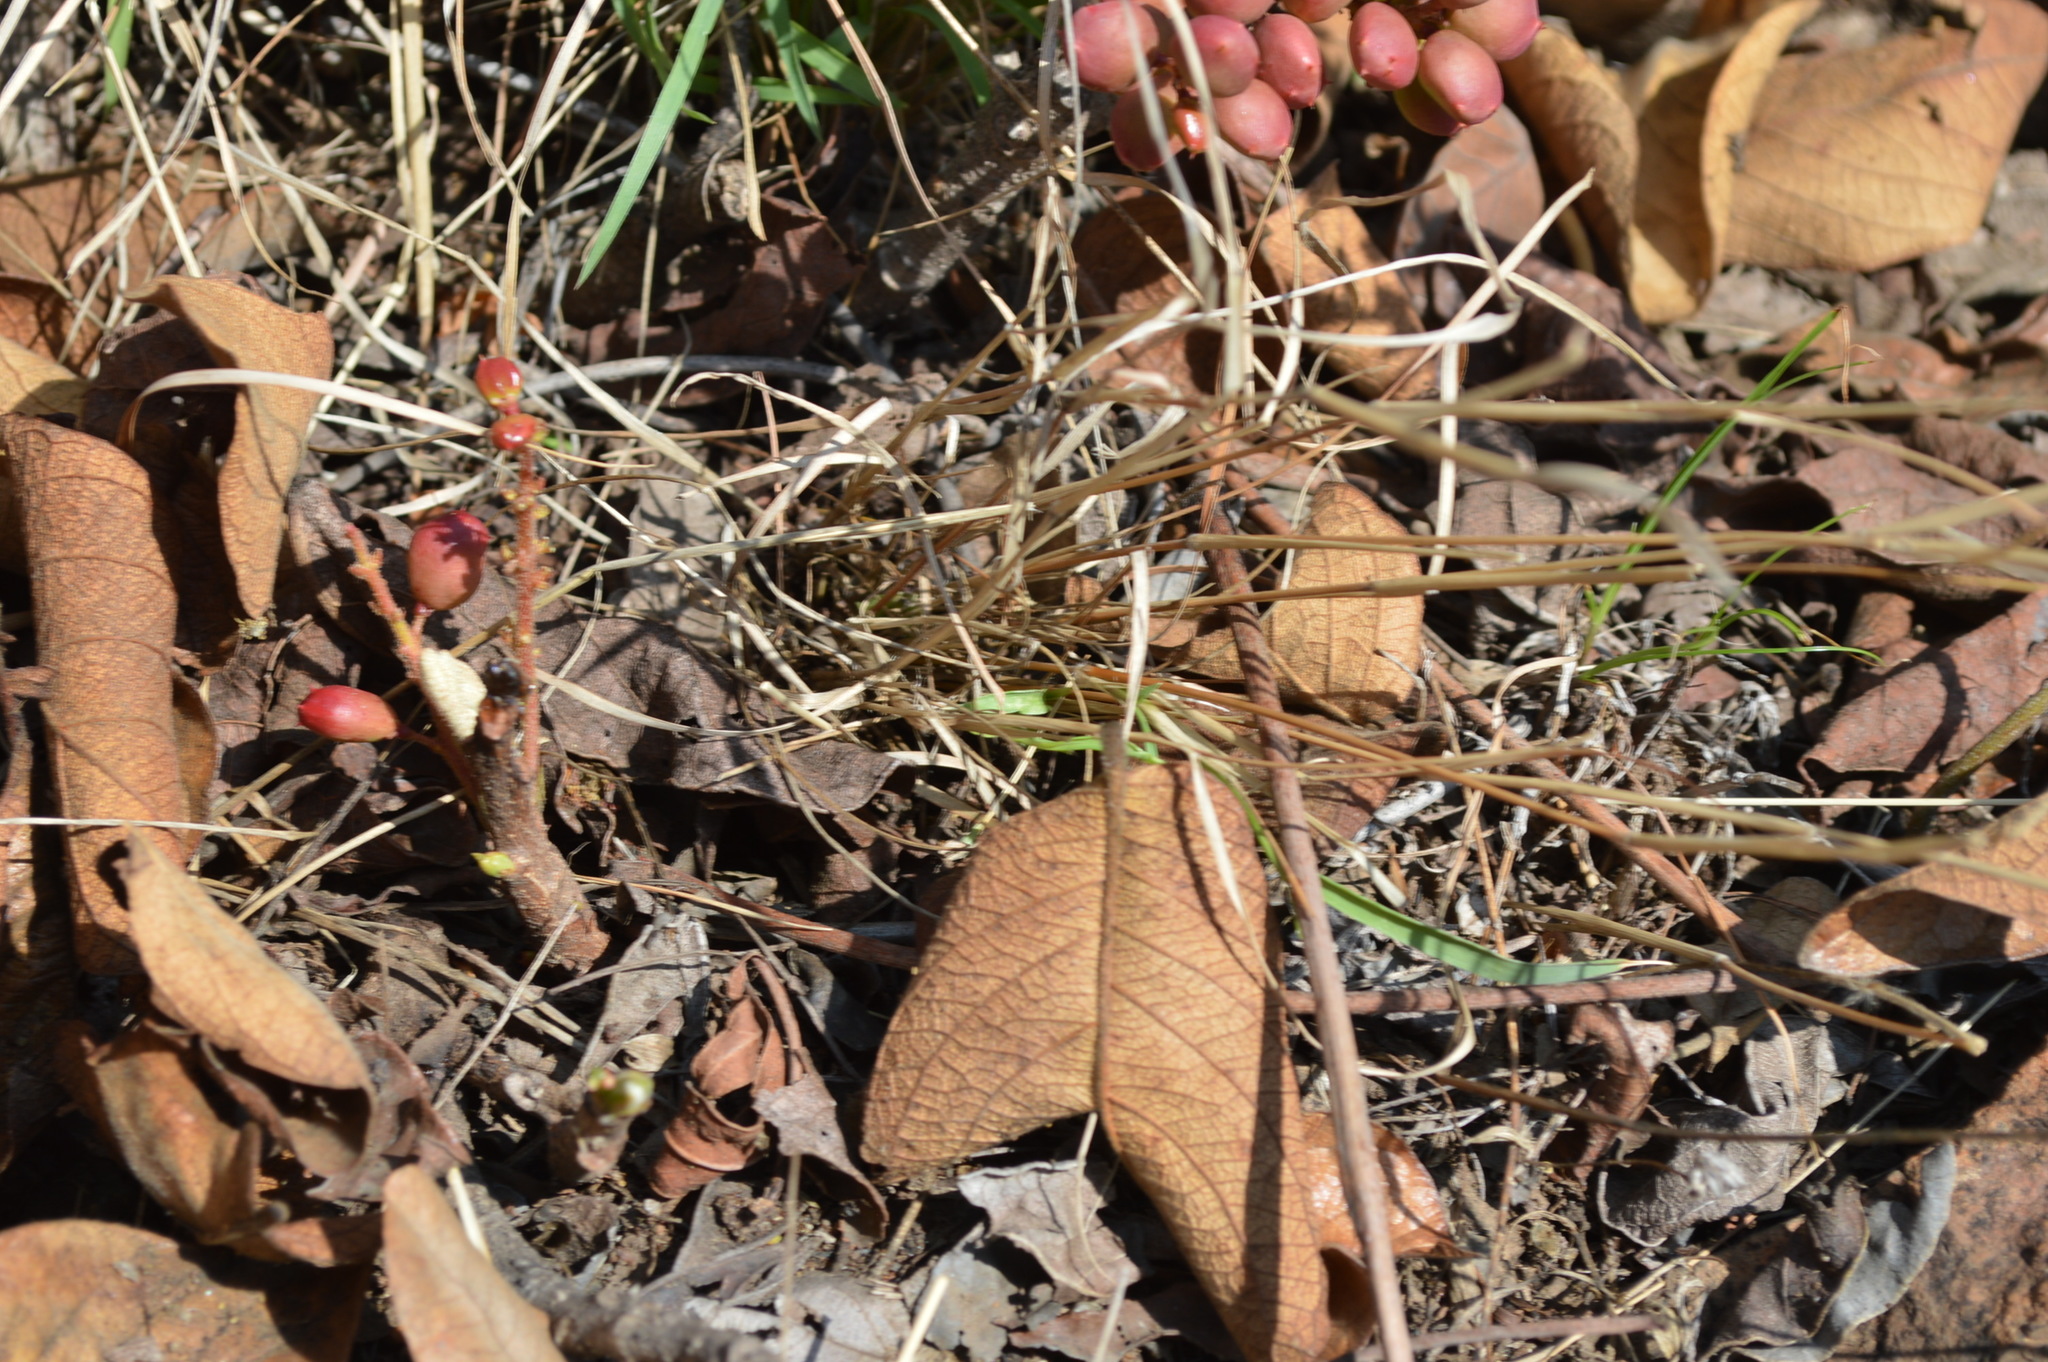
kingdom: Plantae
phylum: Tracheophyta
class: Magnoliopsida
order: Sapindales
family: Anacardiaceae
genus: Lannea
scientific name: Lannea edulis
